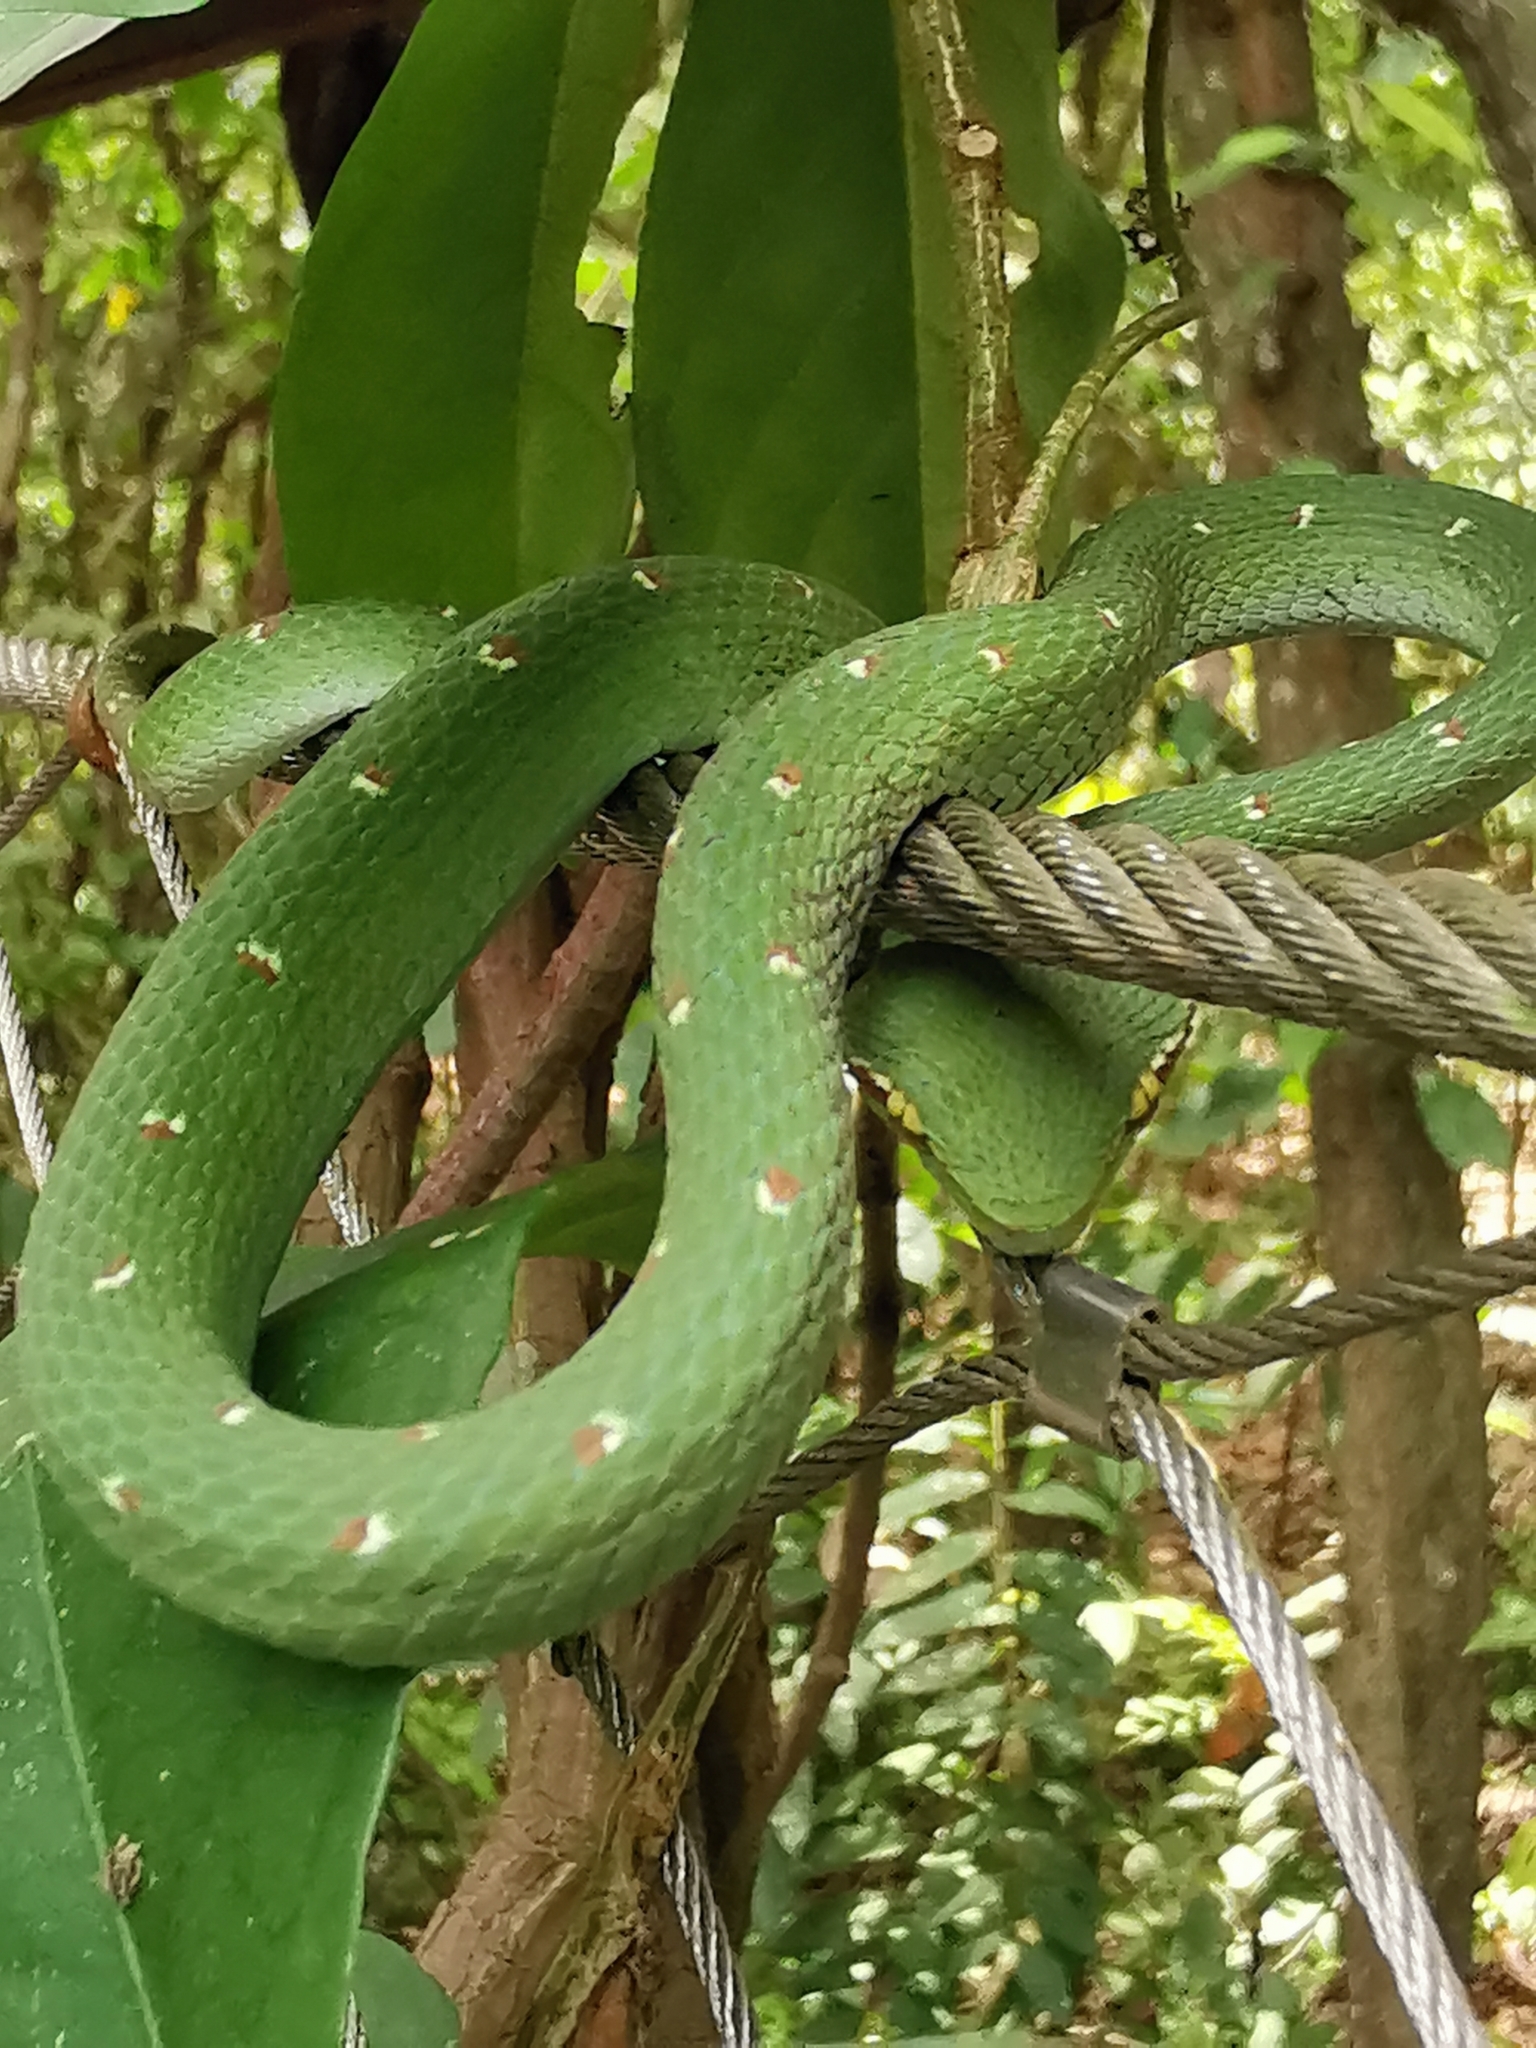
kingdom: Animalia
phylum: Chordata
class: Squamata
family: Viperidae
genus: Tropidolaemus
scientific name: Tropidolaemus wagleri
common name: Wagler's palm viper
